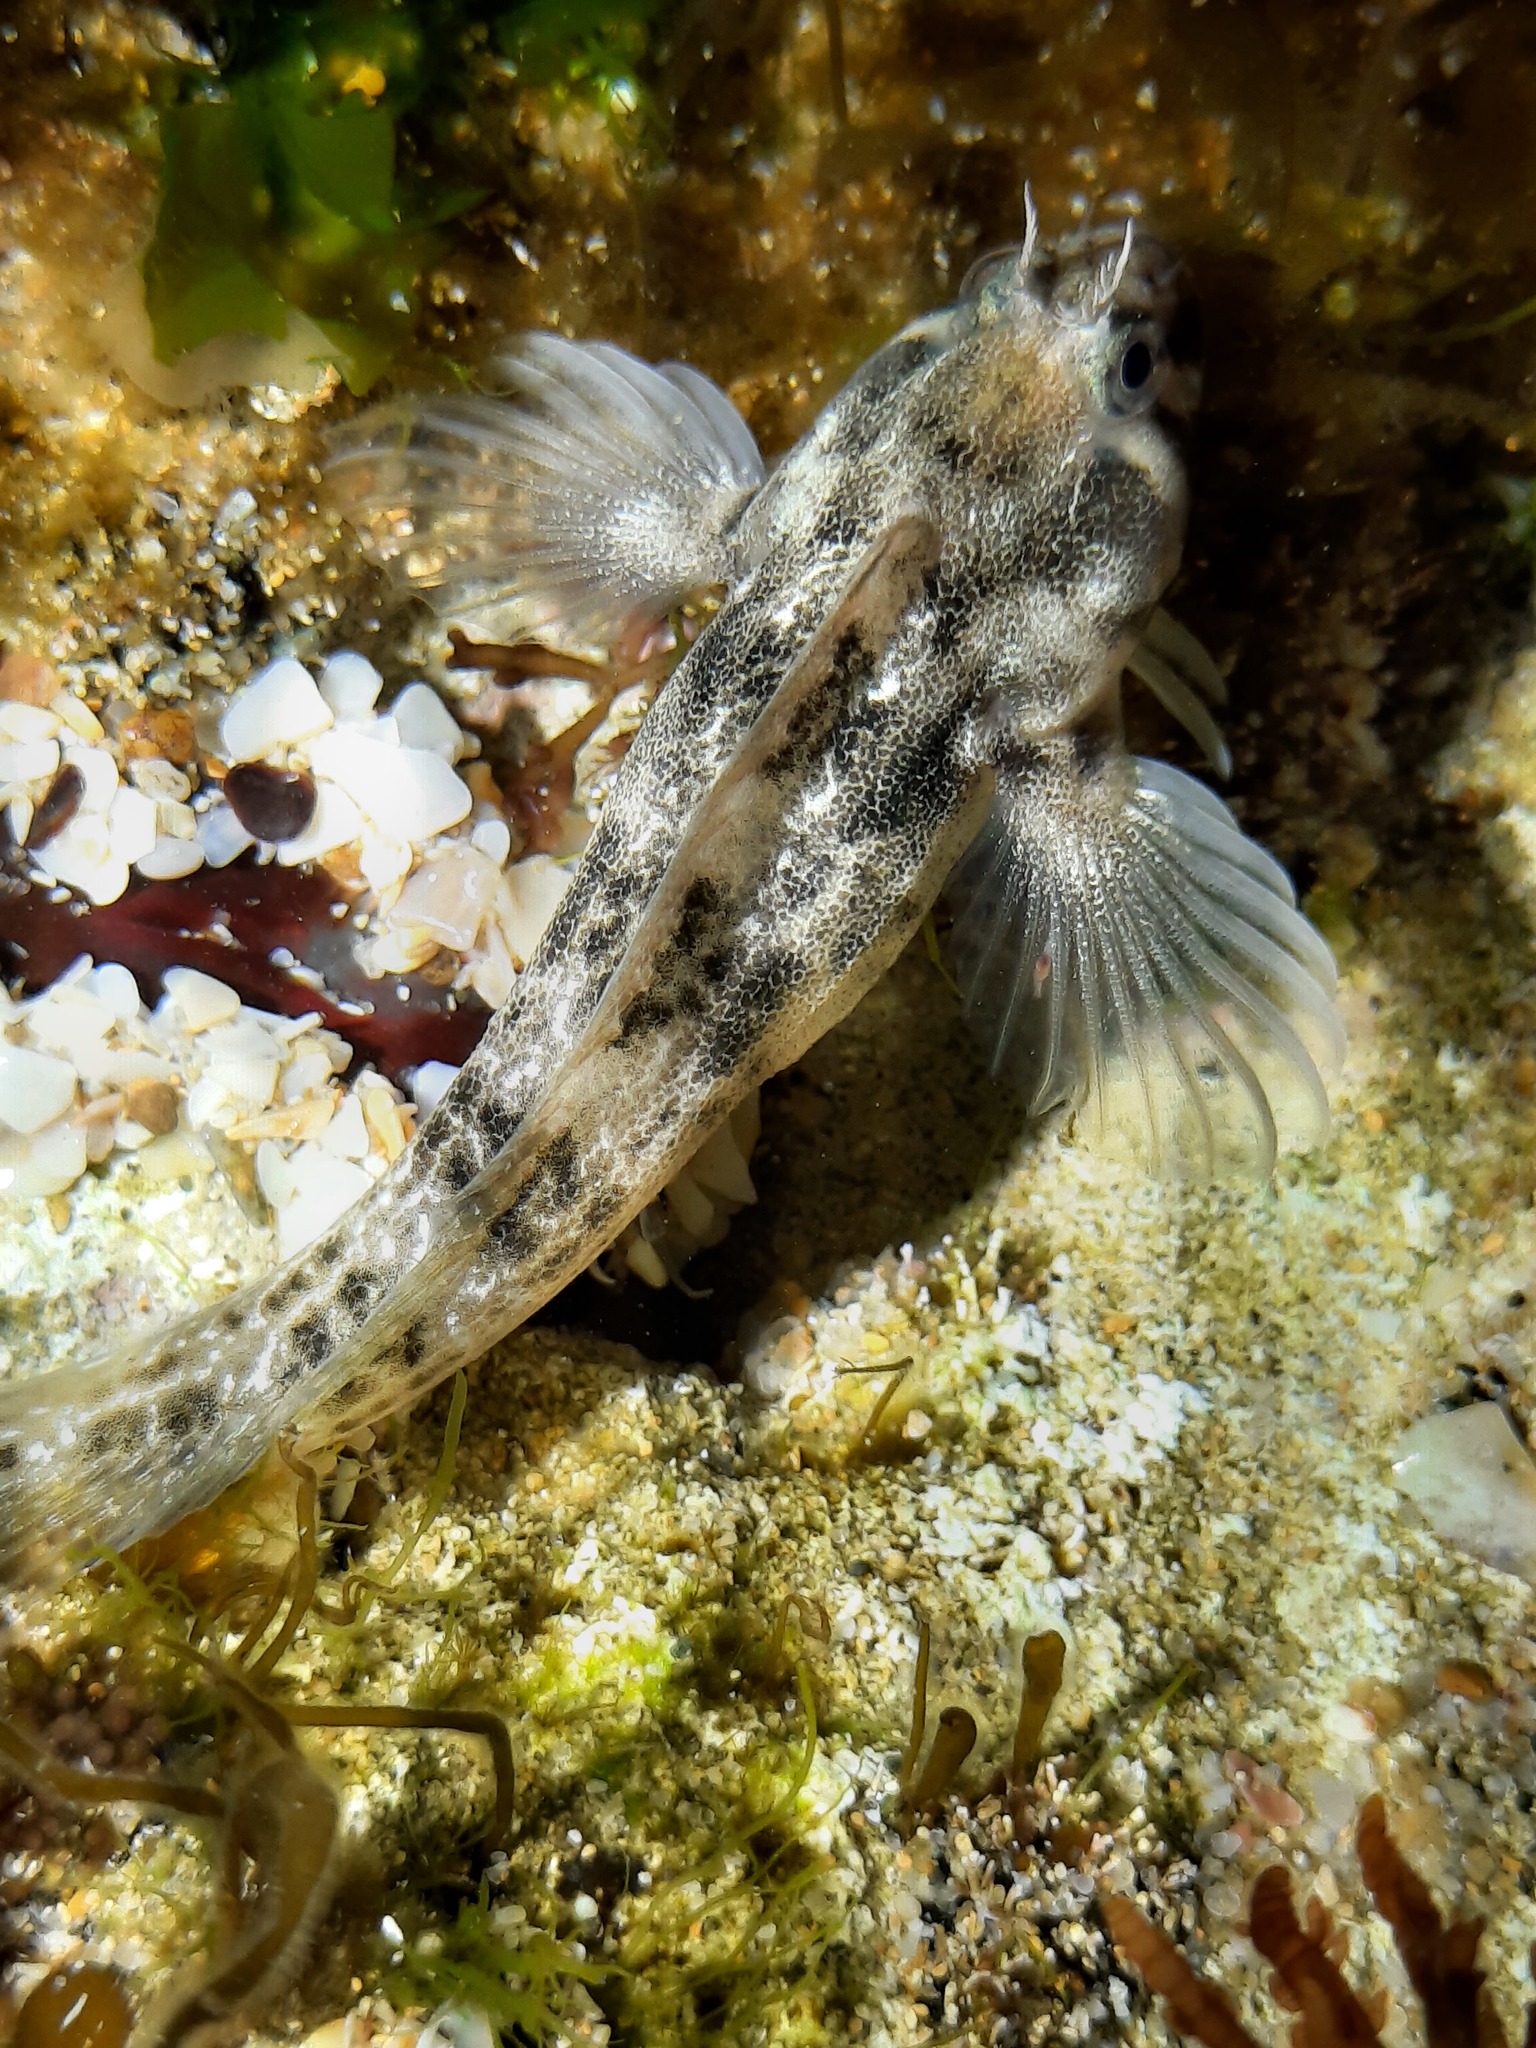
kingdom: Animalia
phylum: Chordata
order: Perciformes
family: Blenniidae
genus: Parablennius
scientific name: Parablennius tasmanianus
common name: Tasmanian blenny
